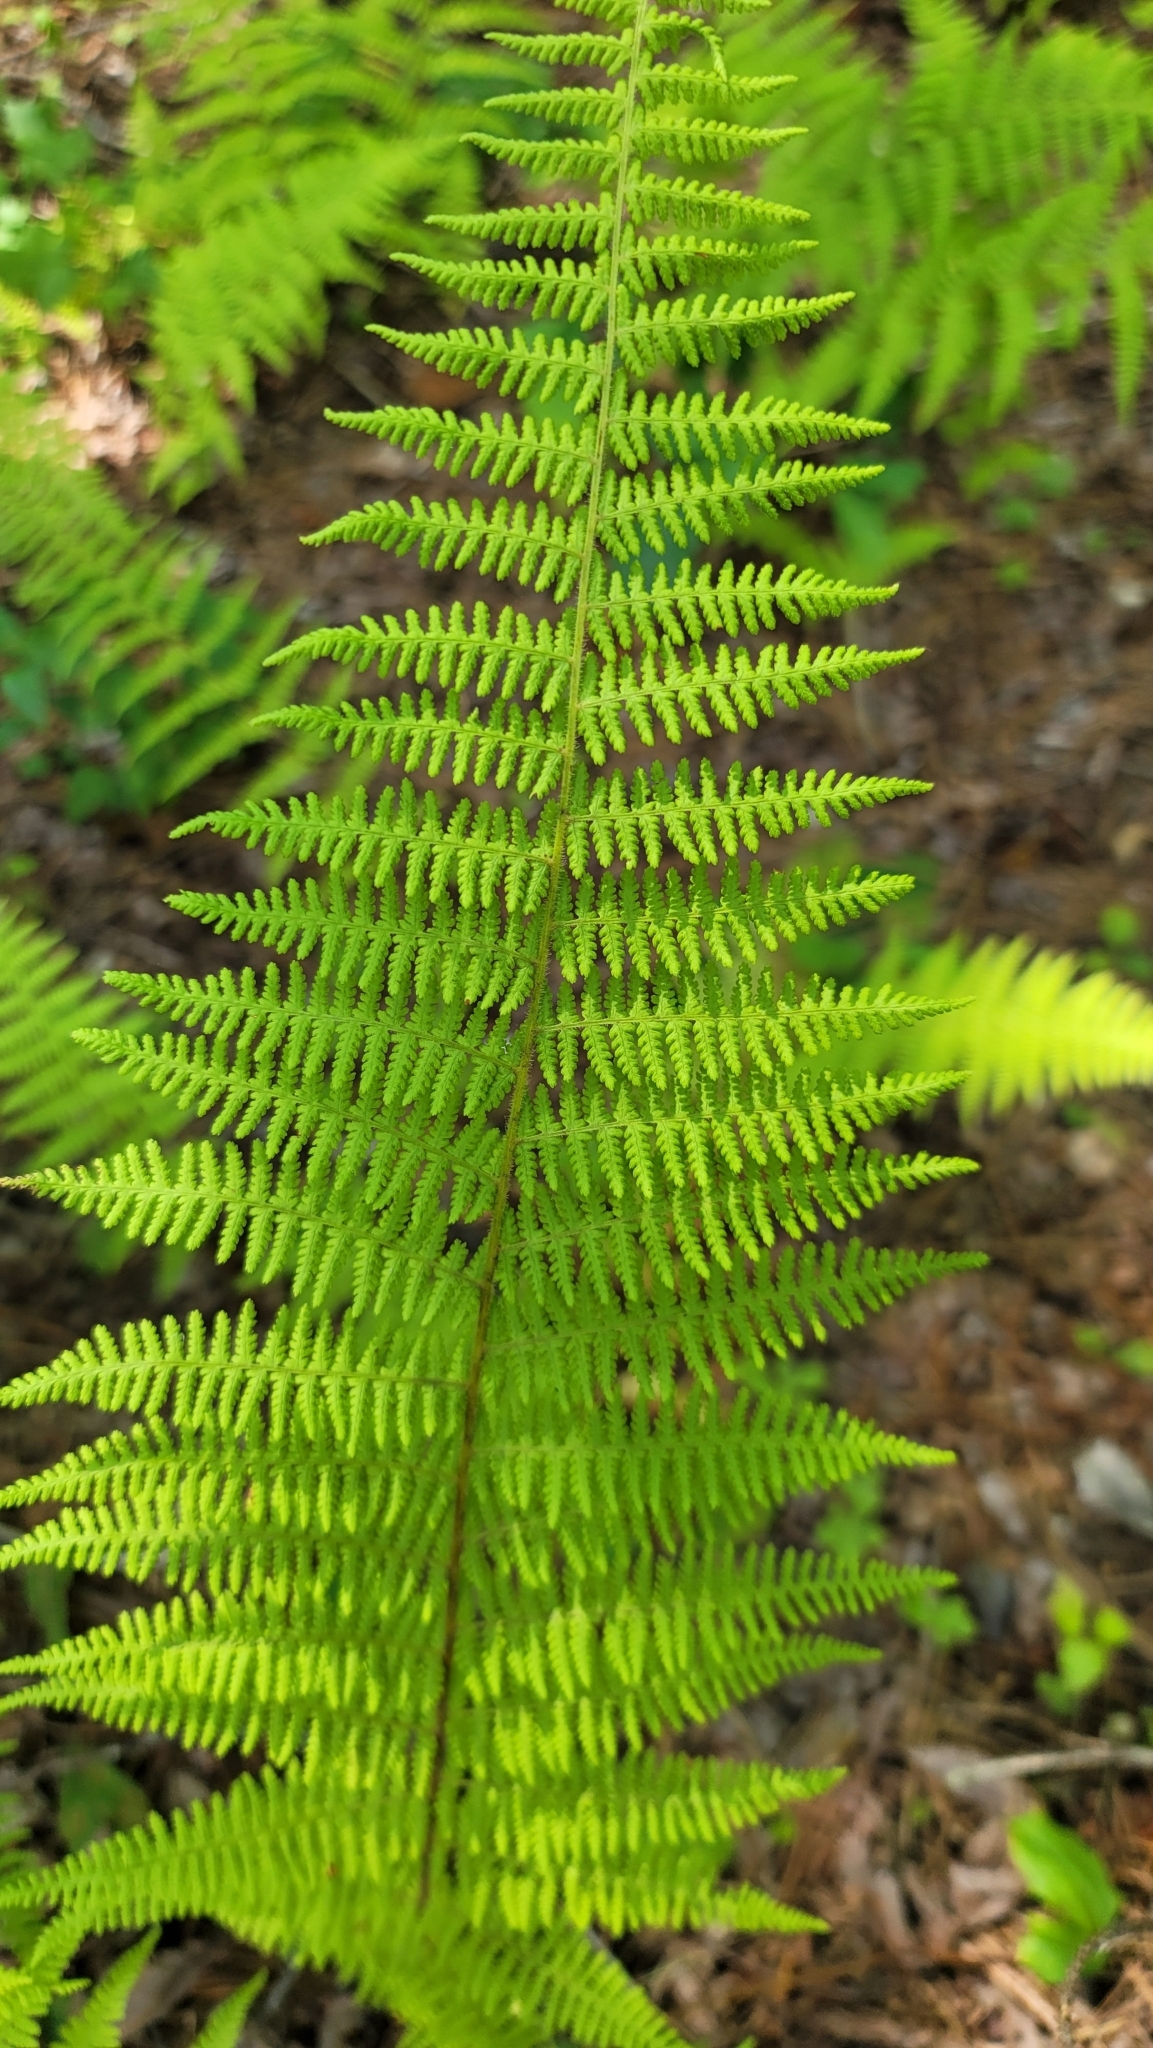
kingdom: Plantae
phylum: Tracheophyta
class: Polypodiopsida
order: Polypodiales
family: Dennstaedtiaceae
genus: Sitobolium
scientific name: Sitobolium punctilobum
